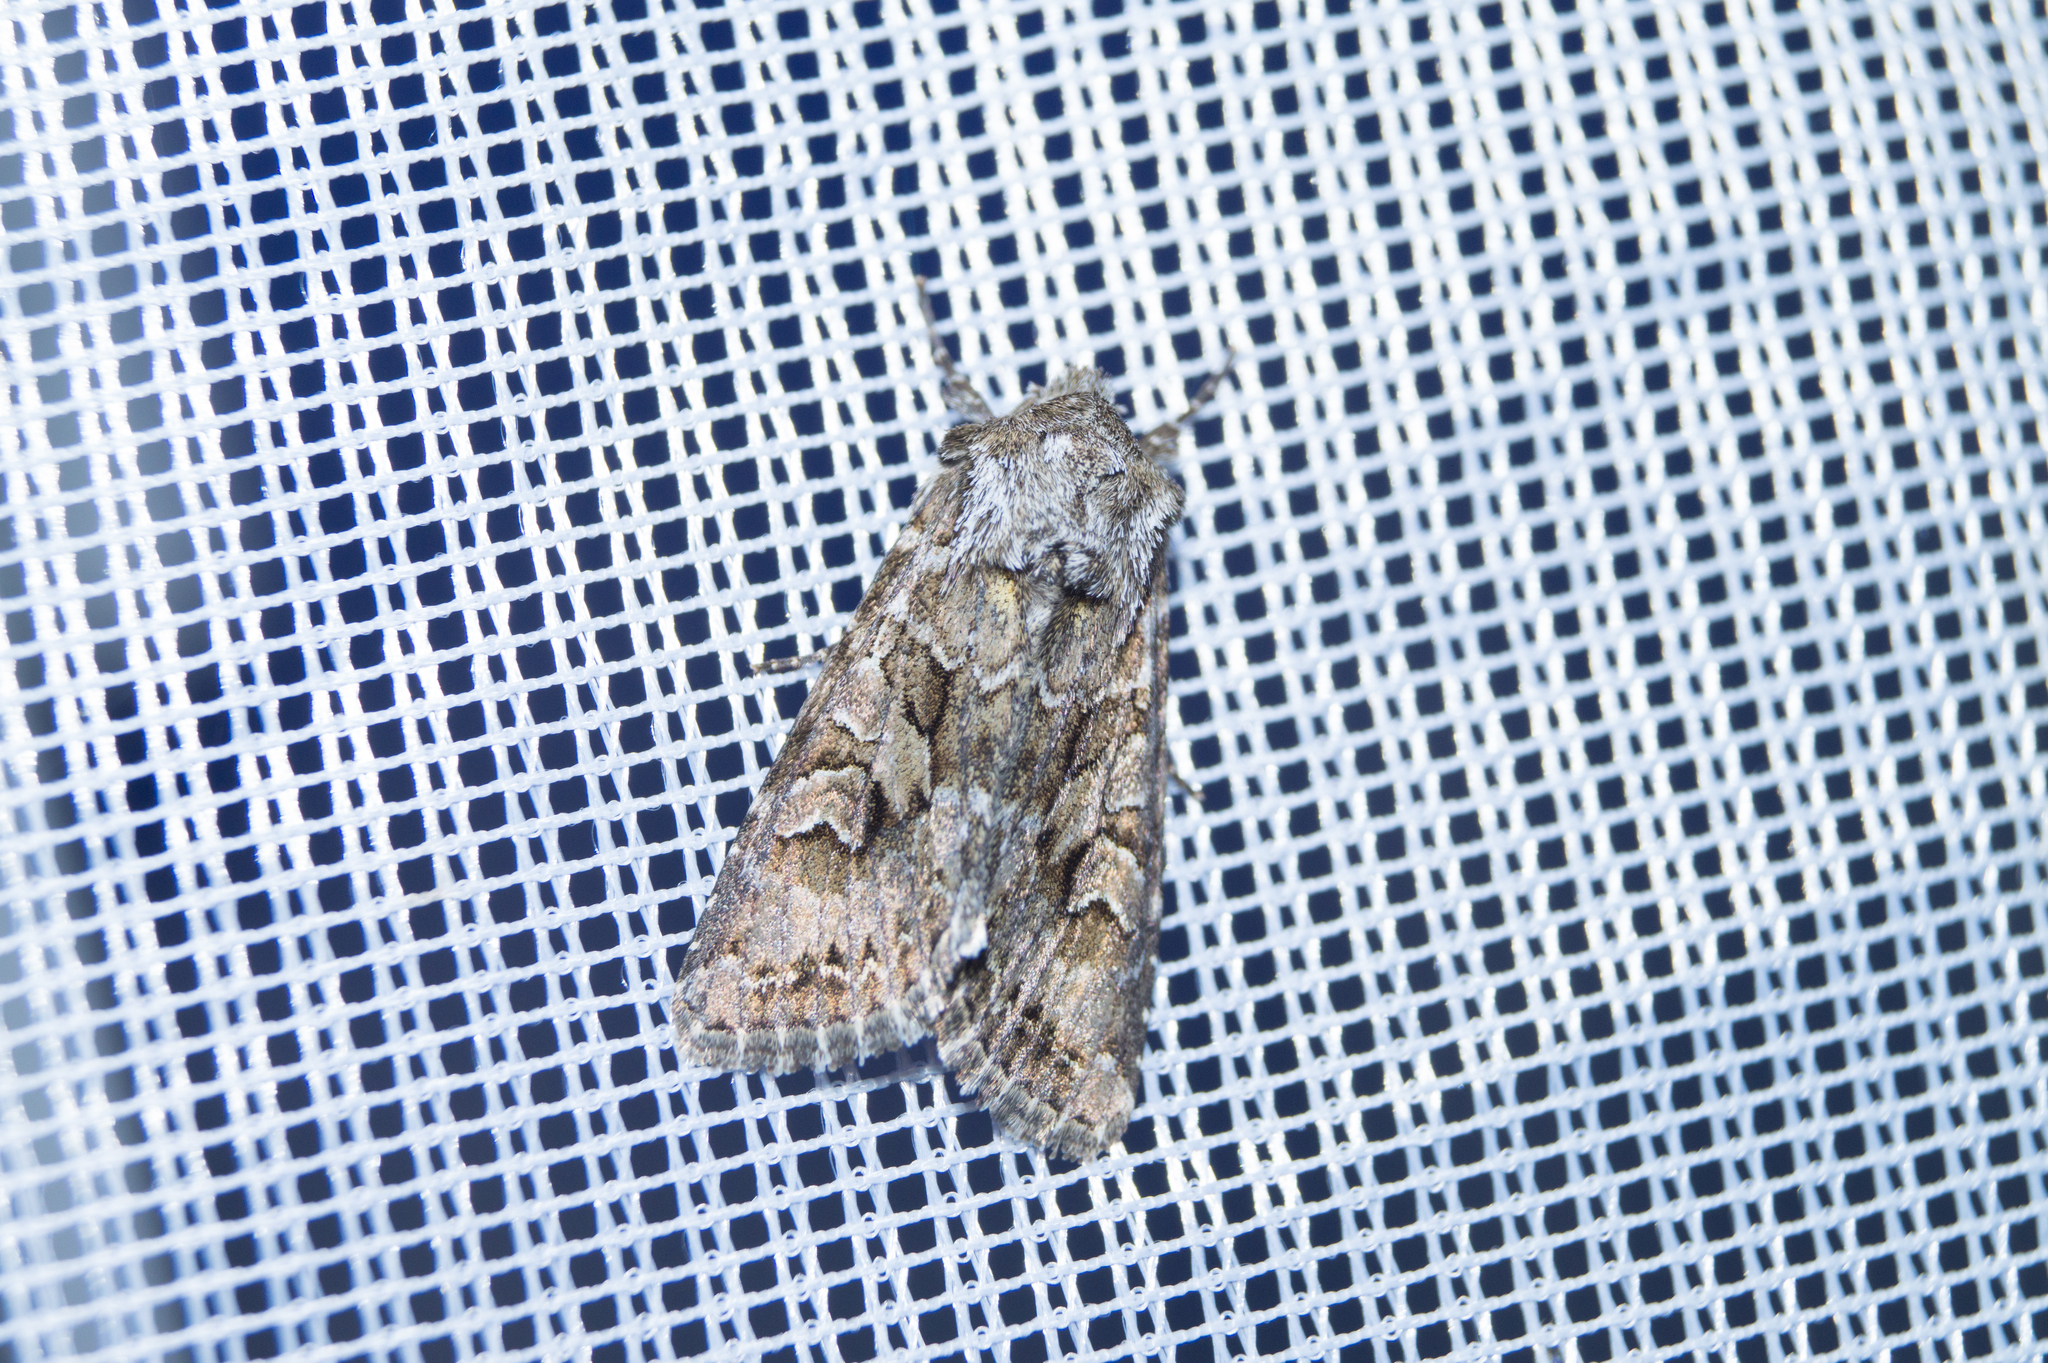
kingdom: Animalia
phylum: Arthropoda
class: Insecta
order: Lepidoptera
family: Noctuidae
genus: Hada
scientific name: Hada plebeja
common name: Shears
